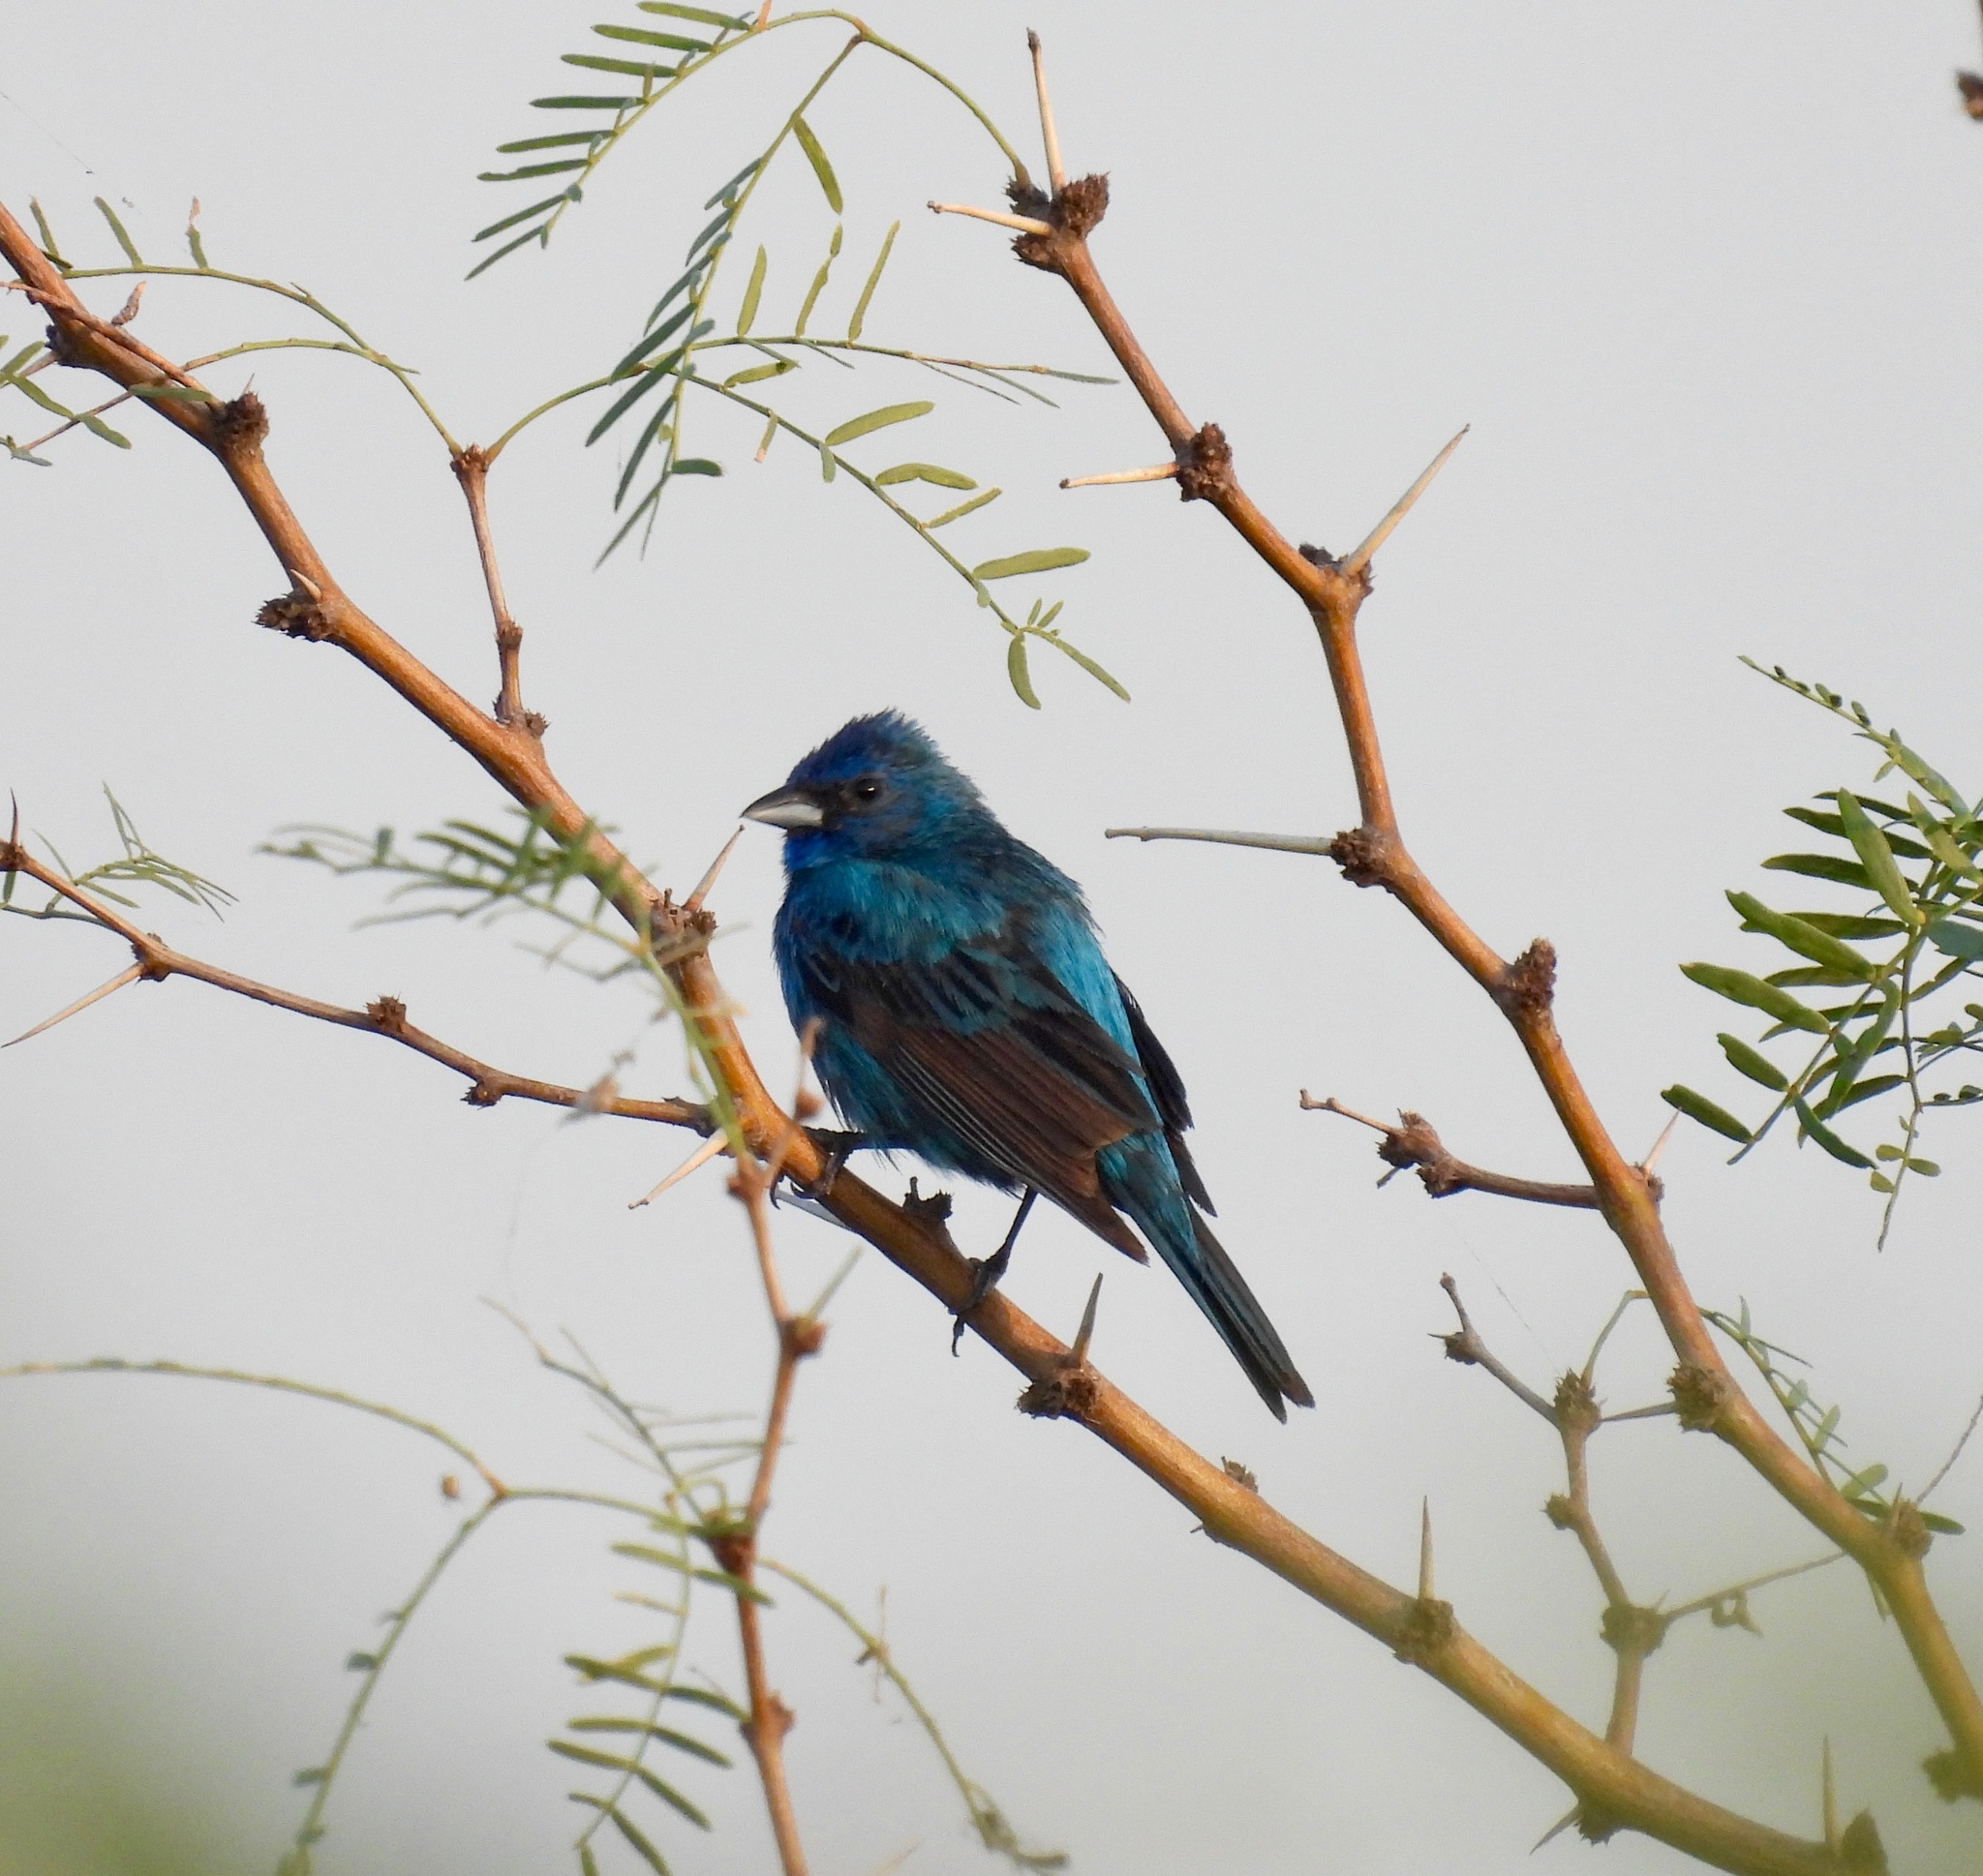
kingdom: Animalia
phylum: Chordata
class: Aves
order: Passeriformes
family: Cardinalidae
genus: Passerina
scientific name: Passerina cyanea
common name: Indigo bunting
